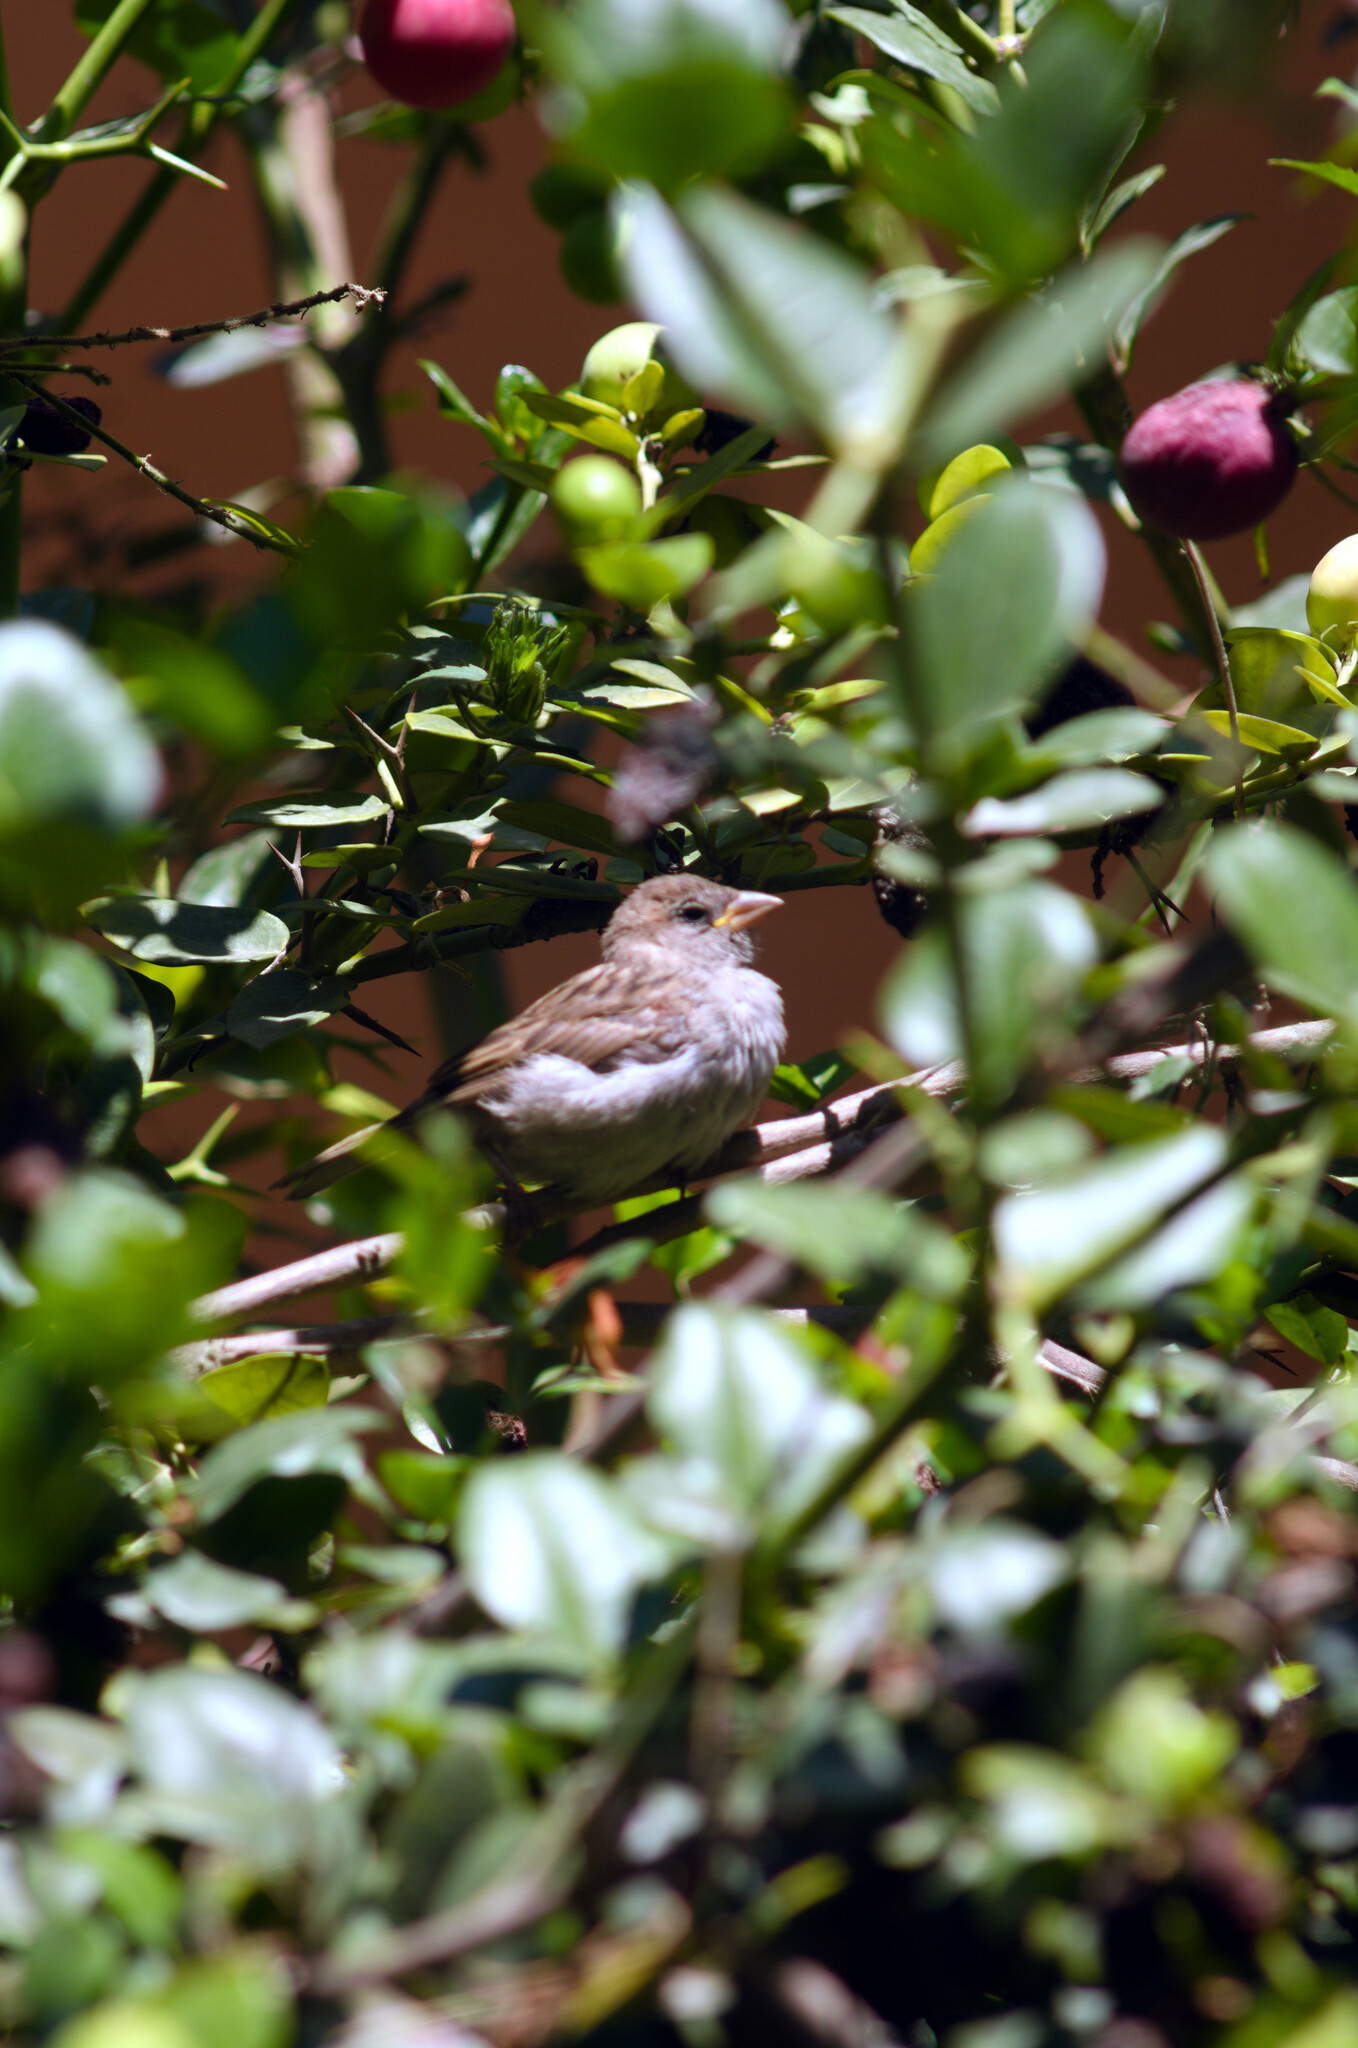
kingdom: Animalia
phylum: Chordata
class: Aves
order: Passeriformes
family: Passeridae
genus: Passer
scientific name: Passer domesticus
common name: House sparrow
